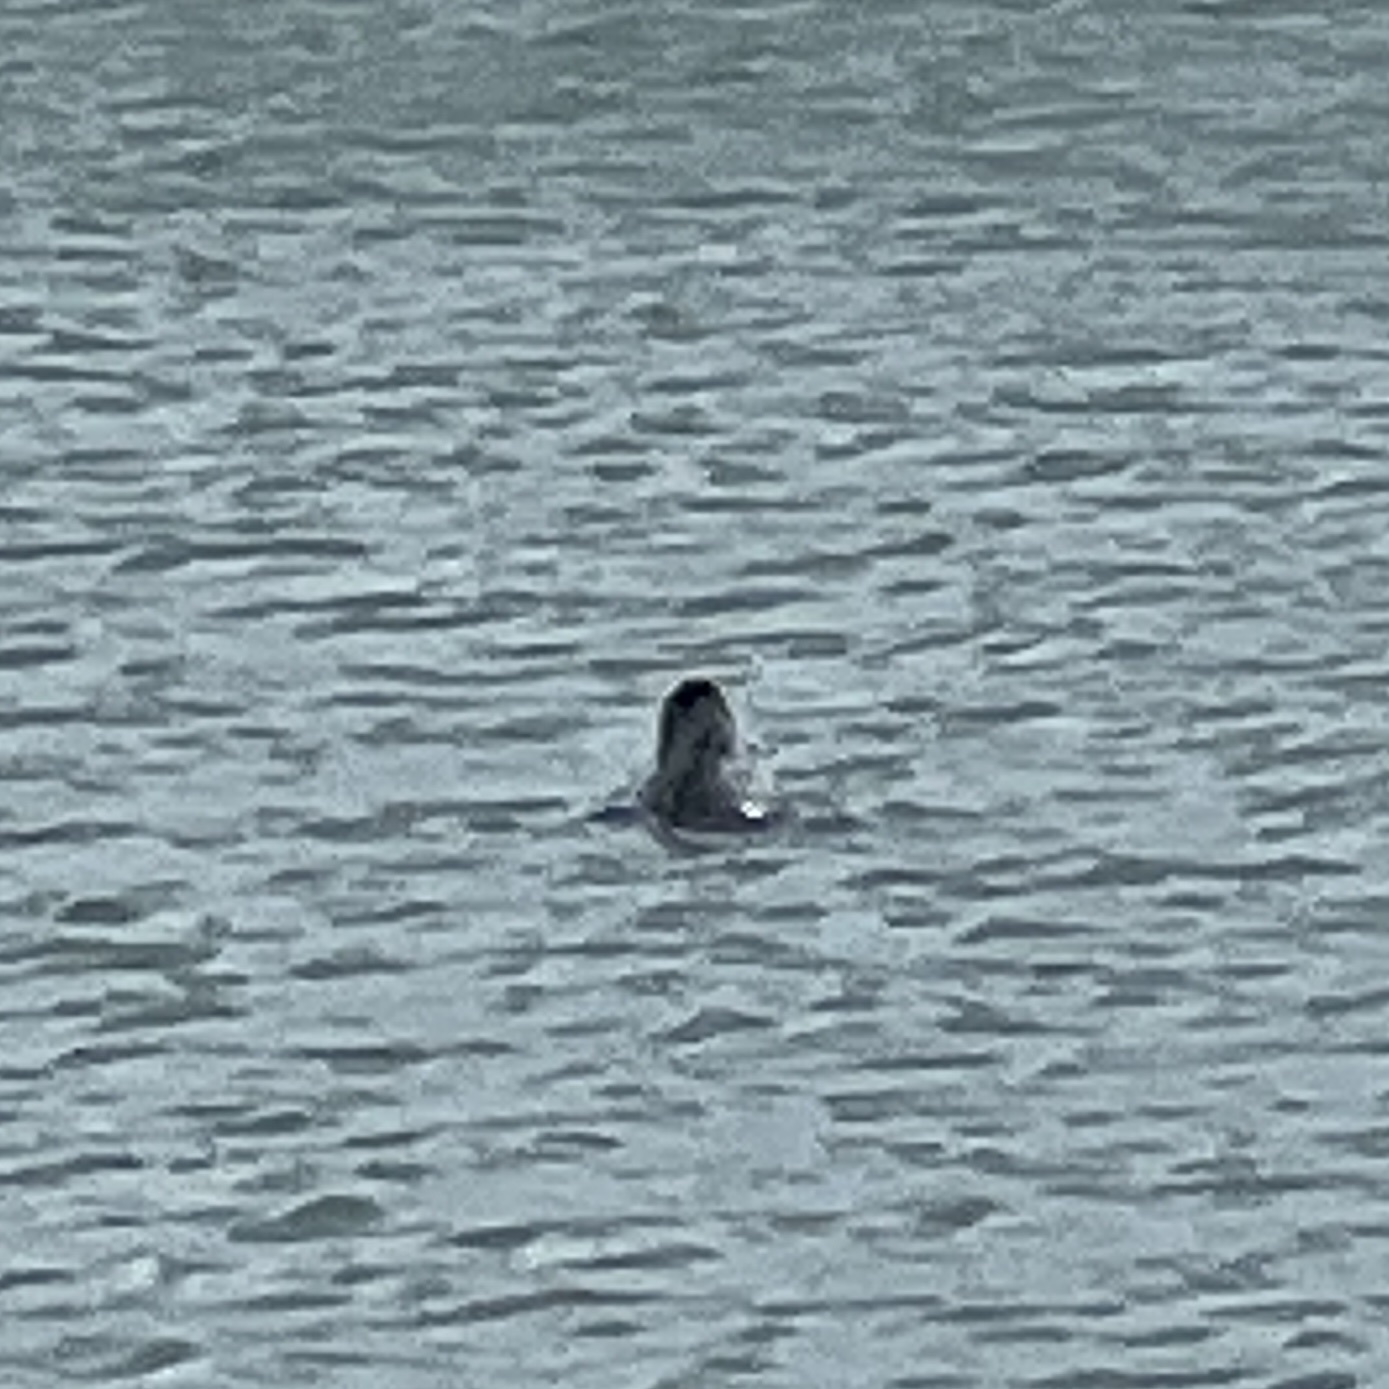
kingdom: Animalia
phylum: Chordata
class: Mammalia
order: Carnivora
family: Phocidae
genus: Halichoerus
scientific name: Halichoerus grypus
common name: Grey seal
